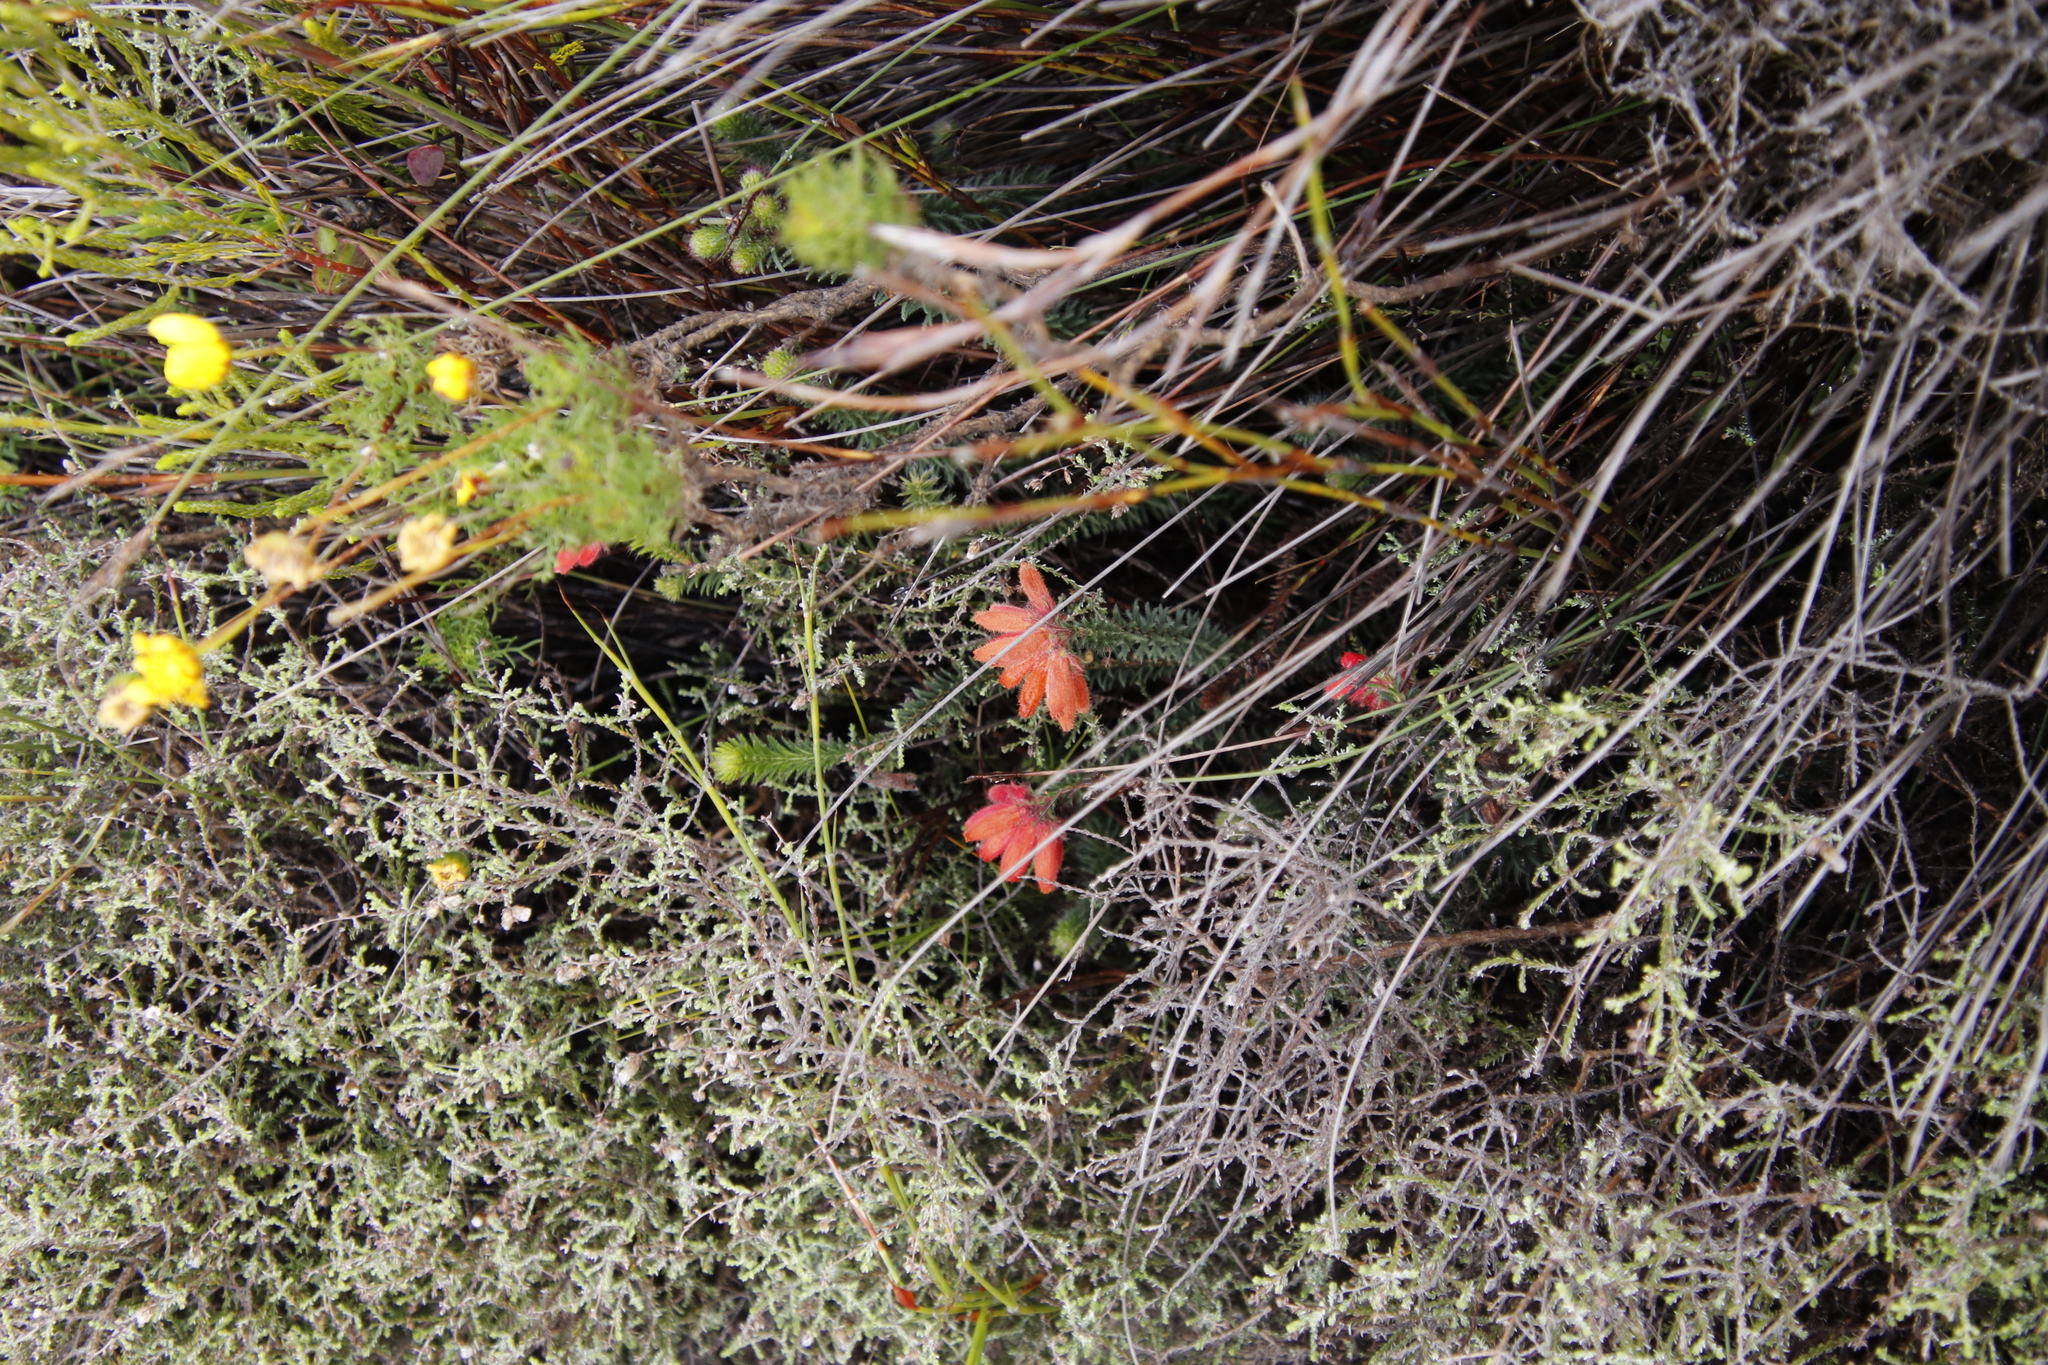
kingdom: Plantae
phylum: Tracheophyta
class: Magnoliopsida
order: Ericales
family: Ericaceae
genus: Erica
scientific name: Erica cerinthoides
